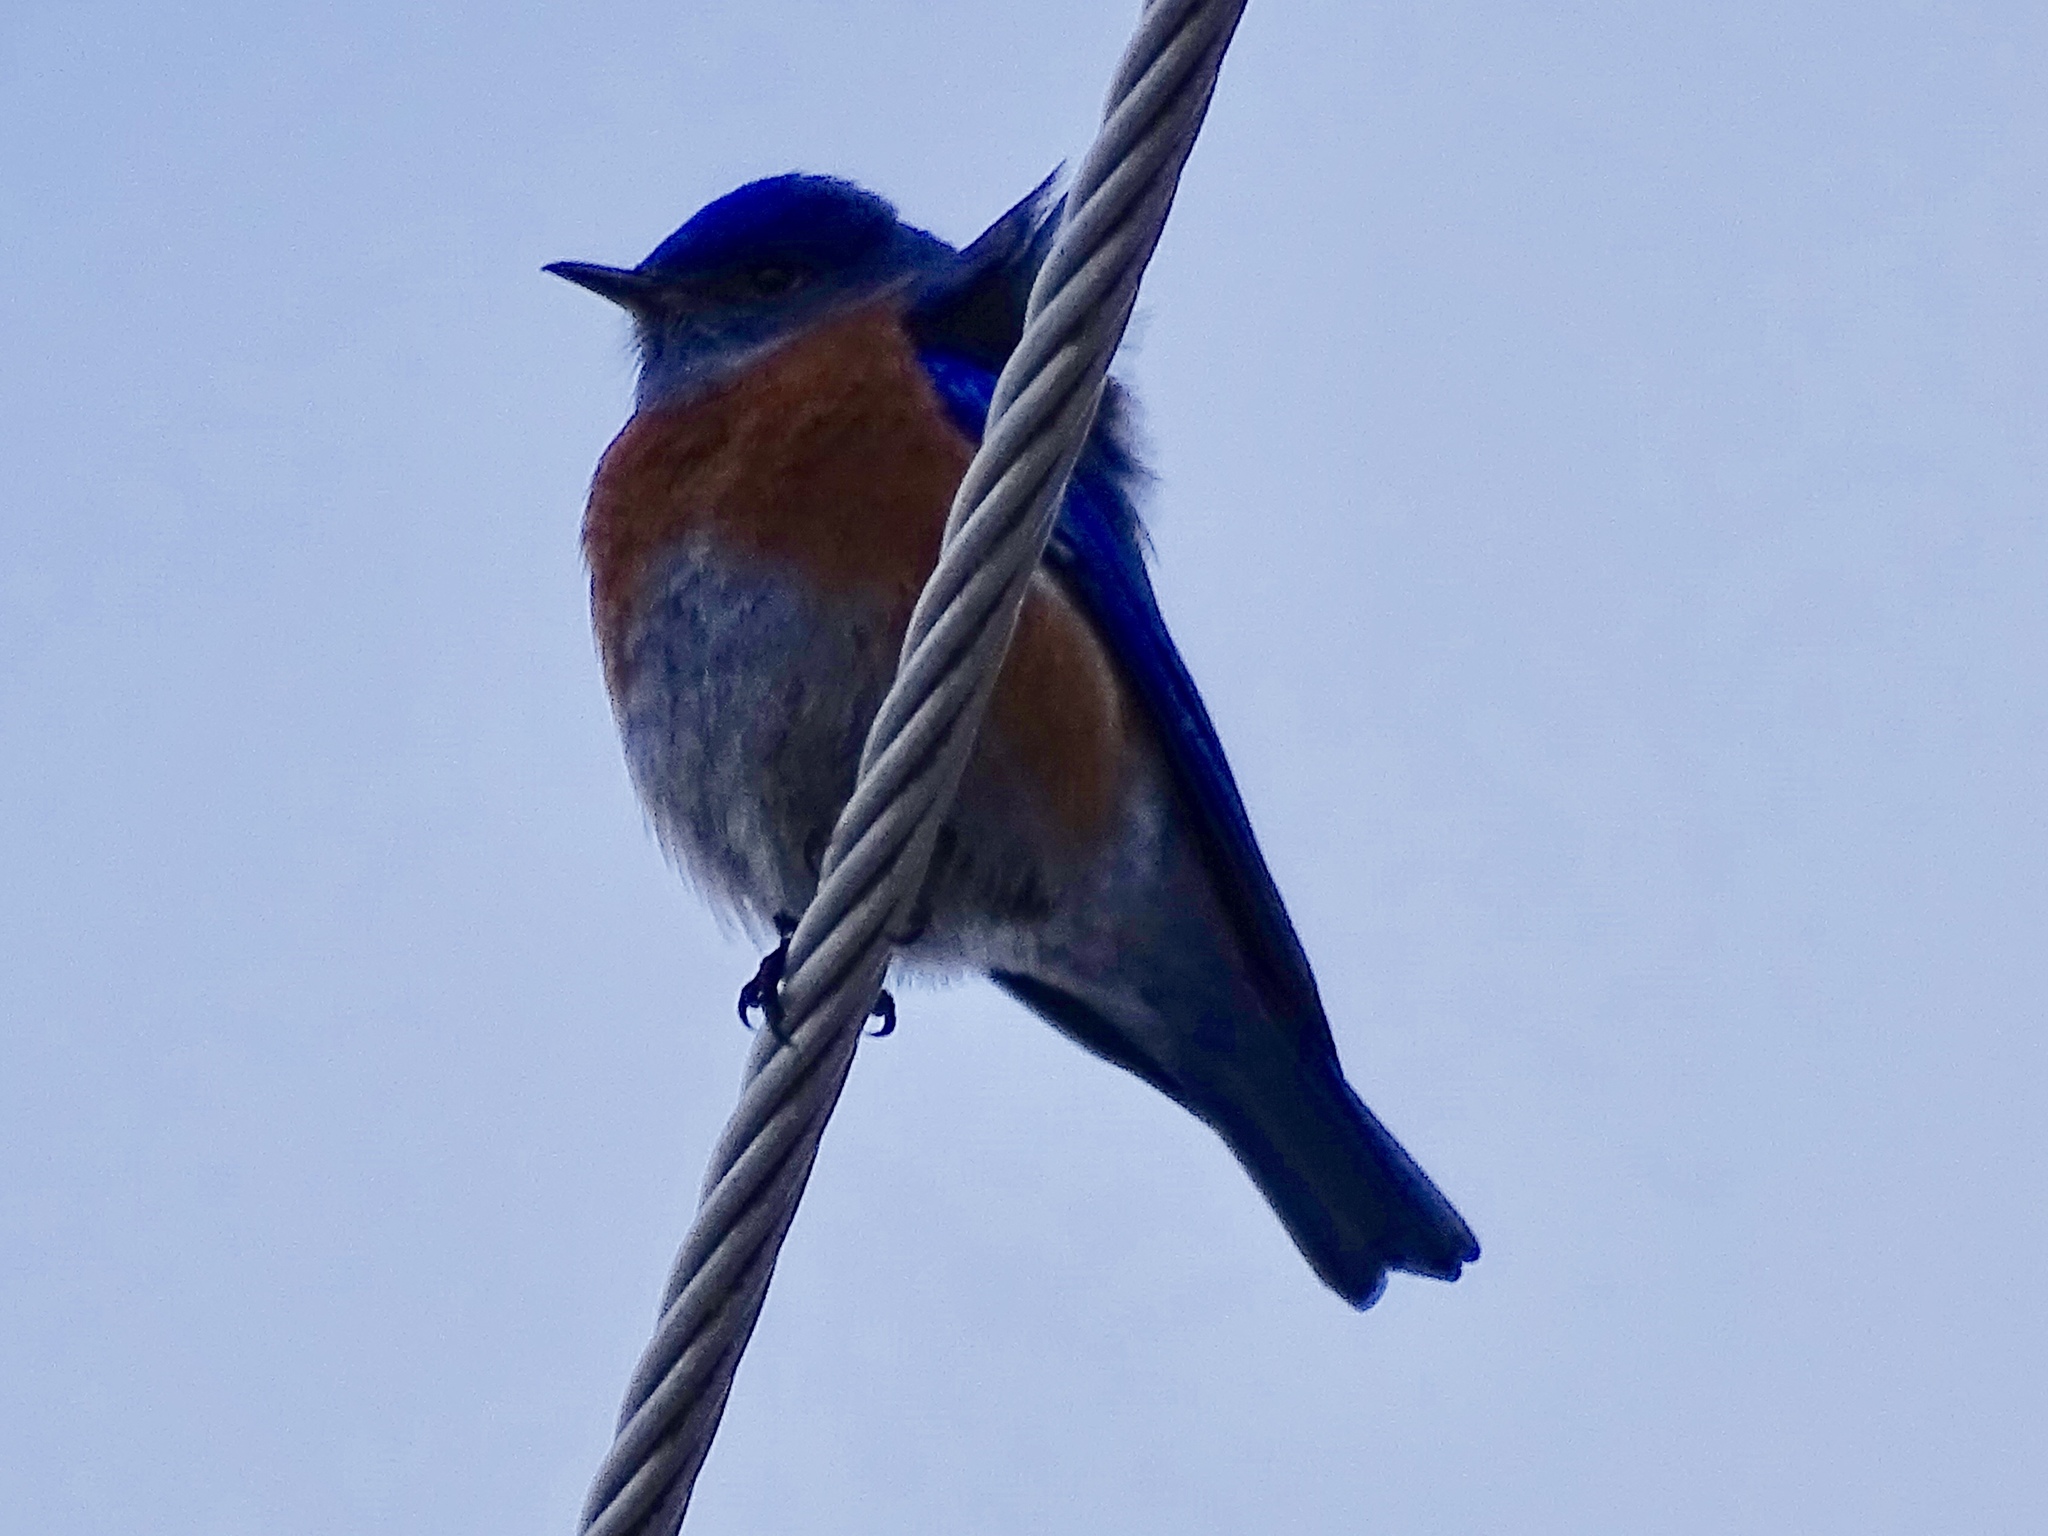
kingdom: Animalia
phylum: Chordata
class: Aves
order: Passeriformes
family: Turdidae
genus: Sialia
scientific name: Sialia mexicana
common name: Western bluebird
